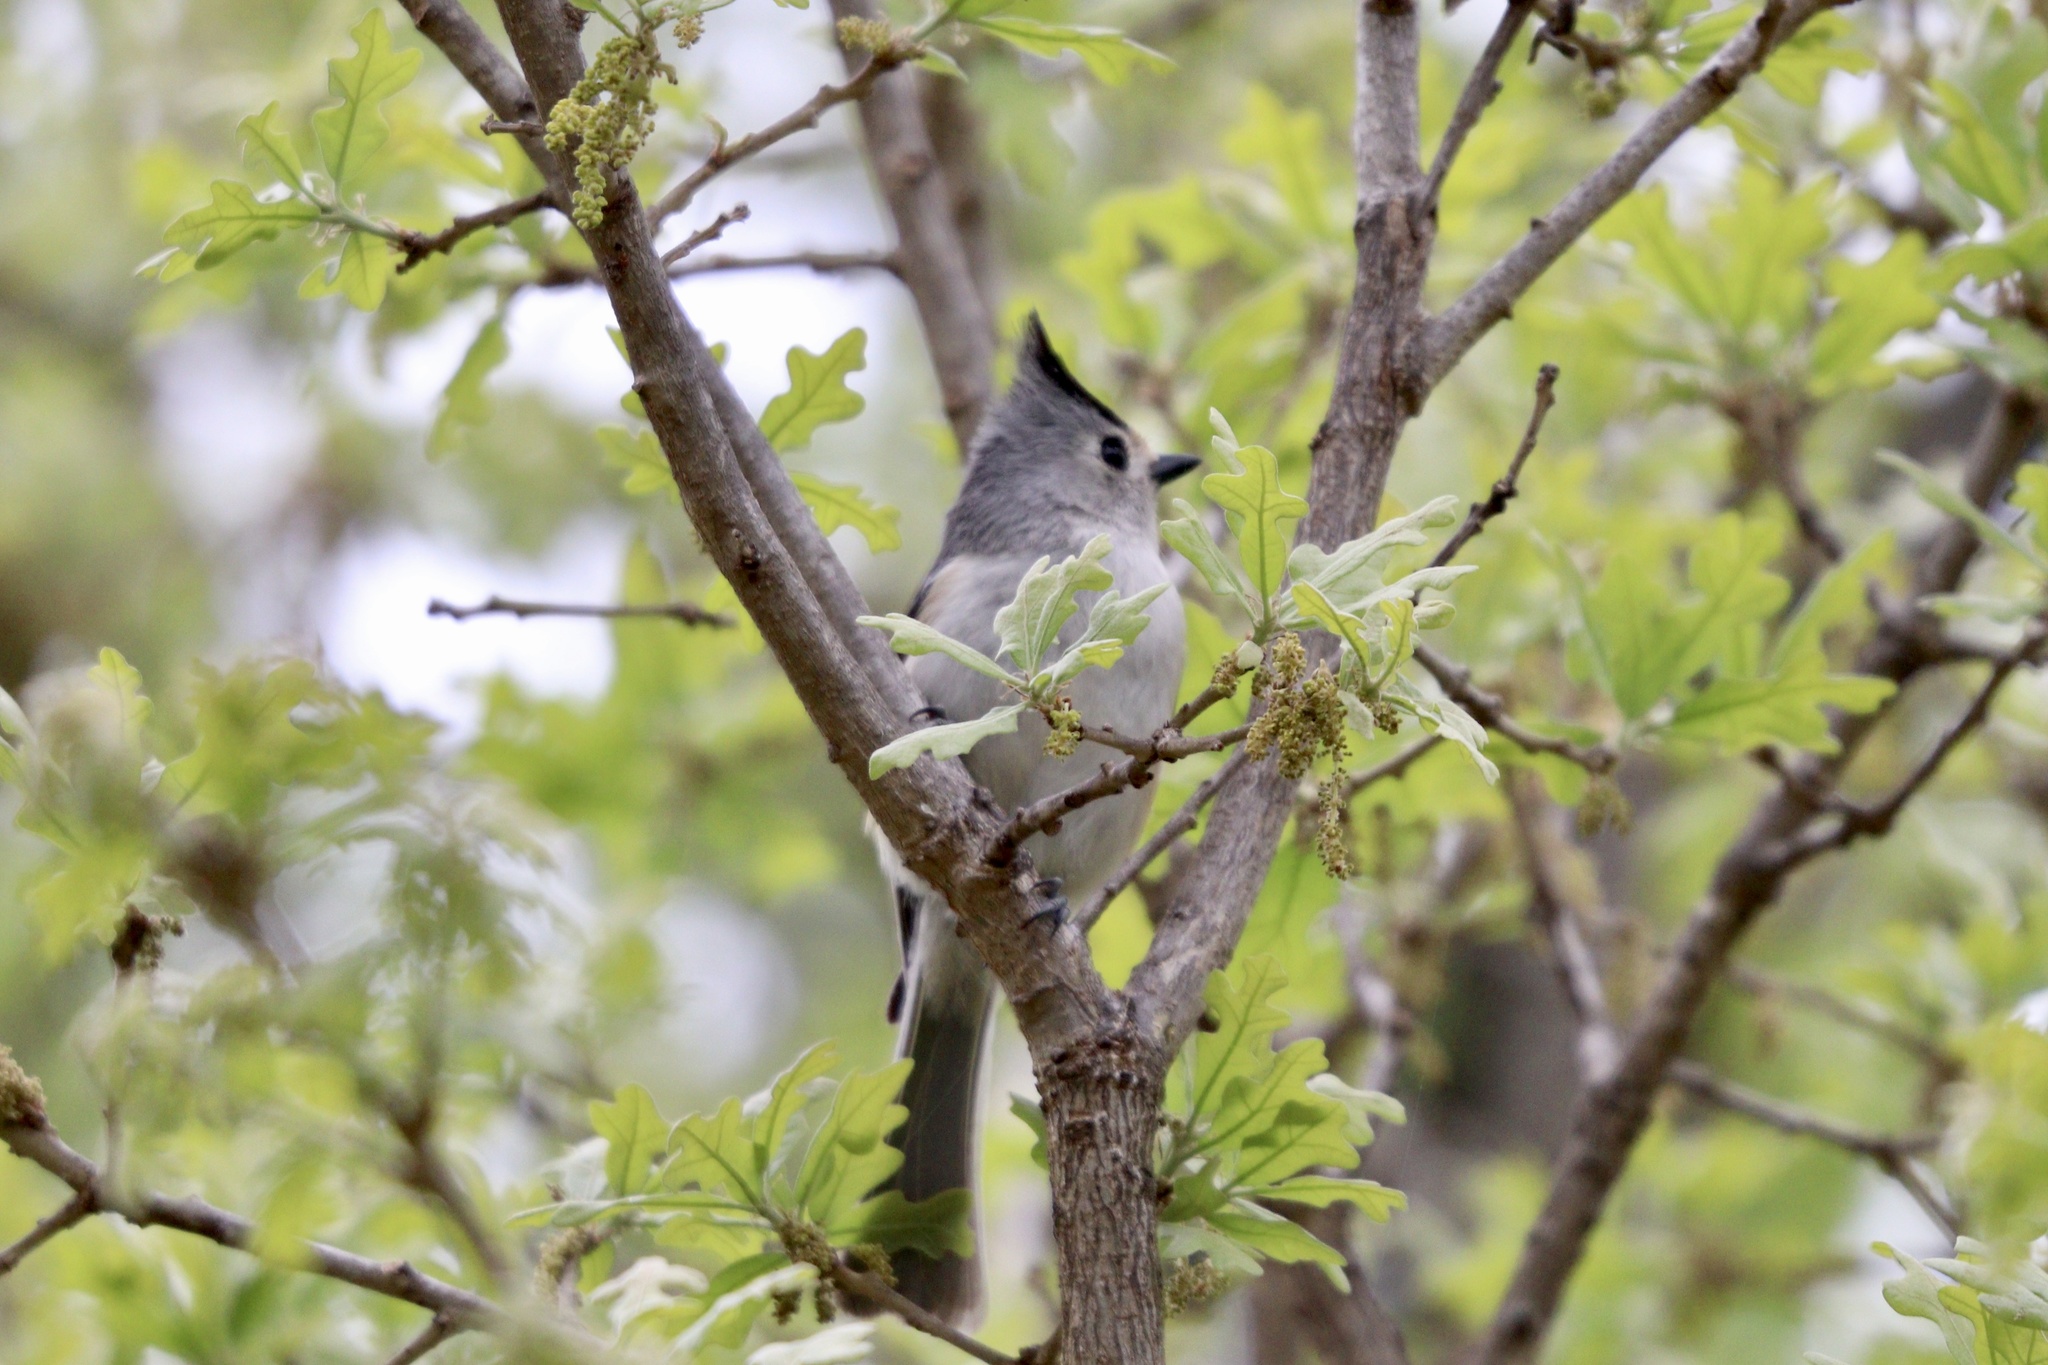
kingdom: Animalia
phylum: Chordata
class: Aves
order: Passeriformes
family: Paridae
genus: Baeolophus
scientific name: Baeolophus atricristatus
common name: Black-crested titmouse
